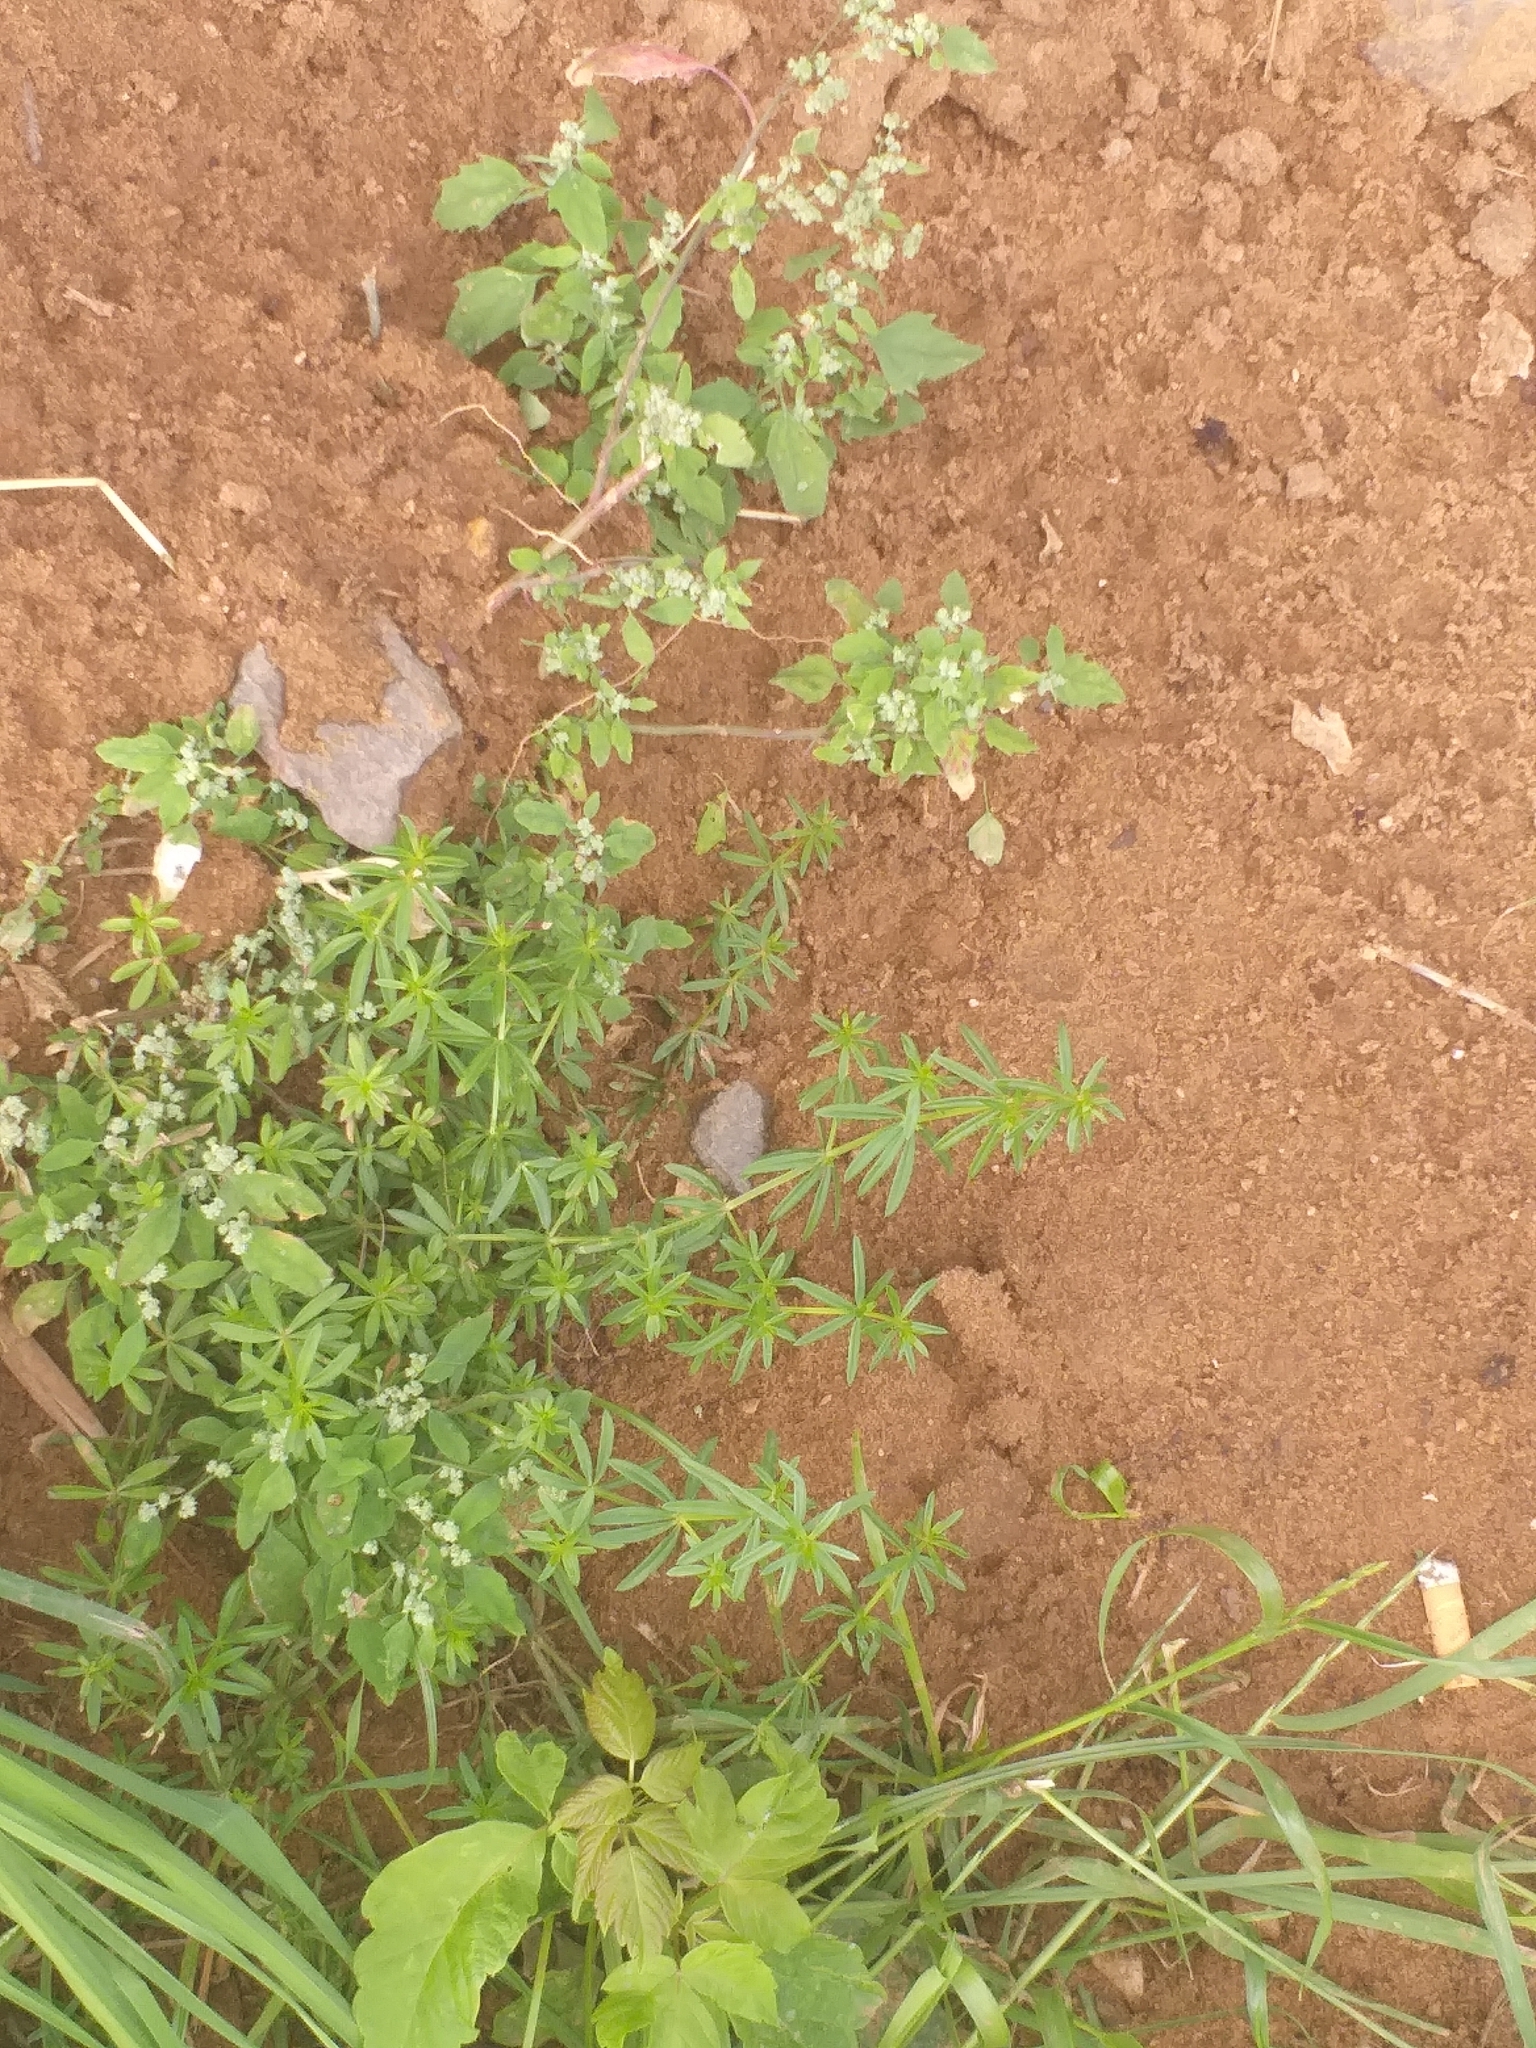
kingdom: Plantae
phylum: Tracheophyta
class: Magnoliopsida
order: Gentianales
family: Rubiaceae
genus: Galium
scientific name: Galium mollugo
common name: Hedge bedstraw
